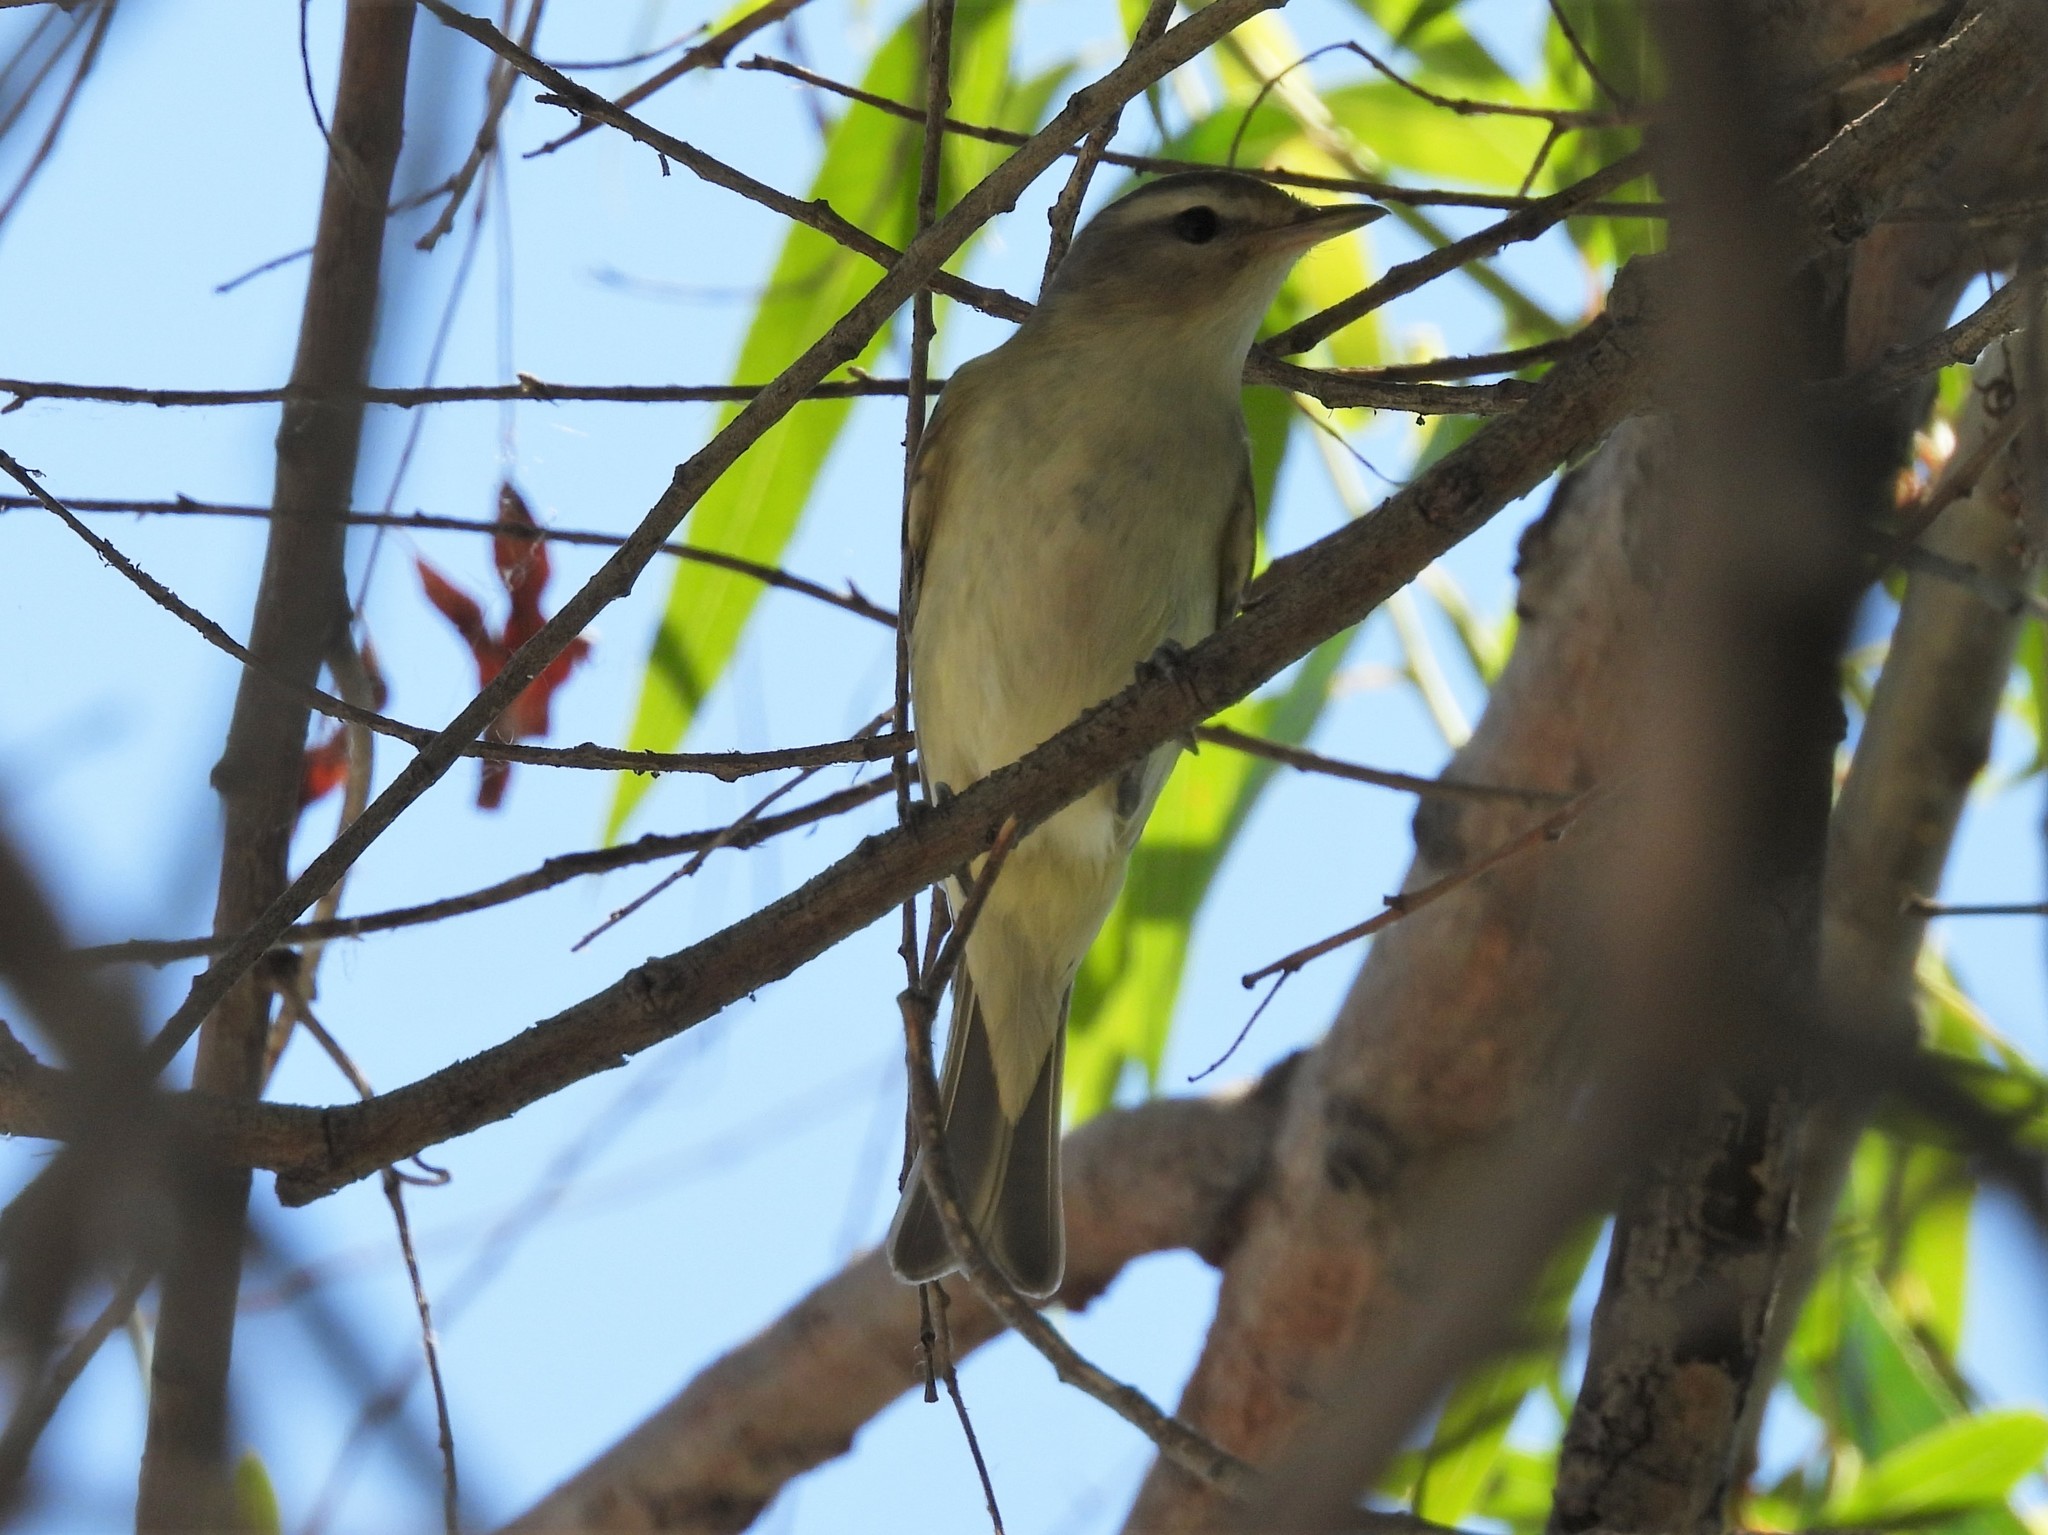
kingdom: Animalia
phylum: Chordata
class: Aves
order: Passeriformes
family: Vireonidae
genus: Vireo
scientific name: Vireo gilvus
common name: Warbling vireo
